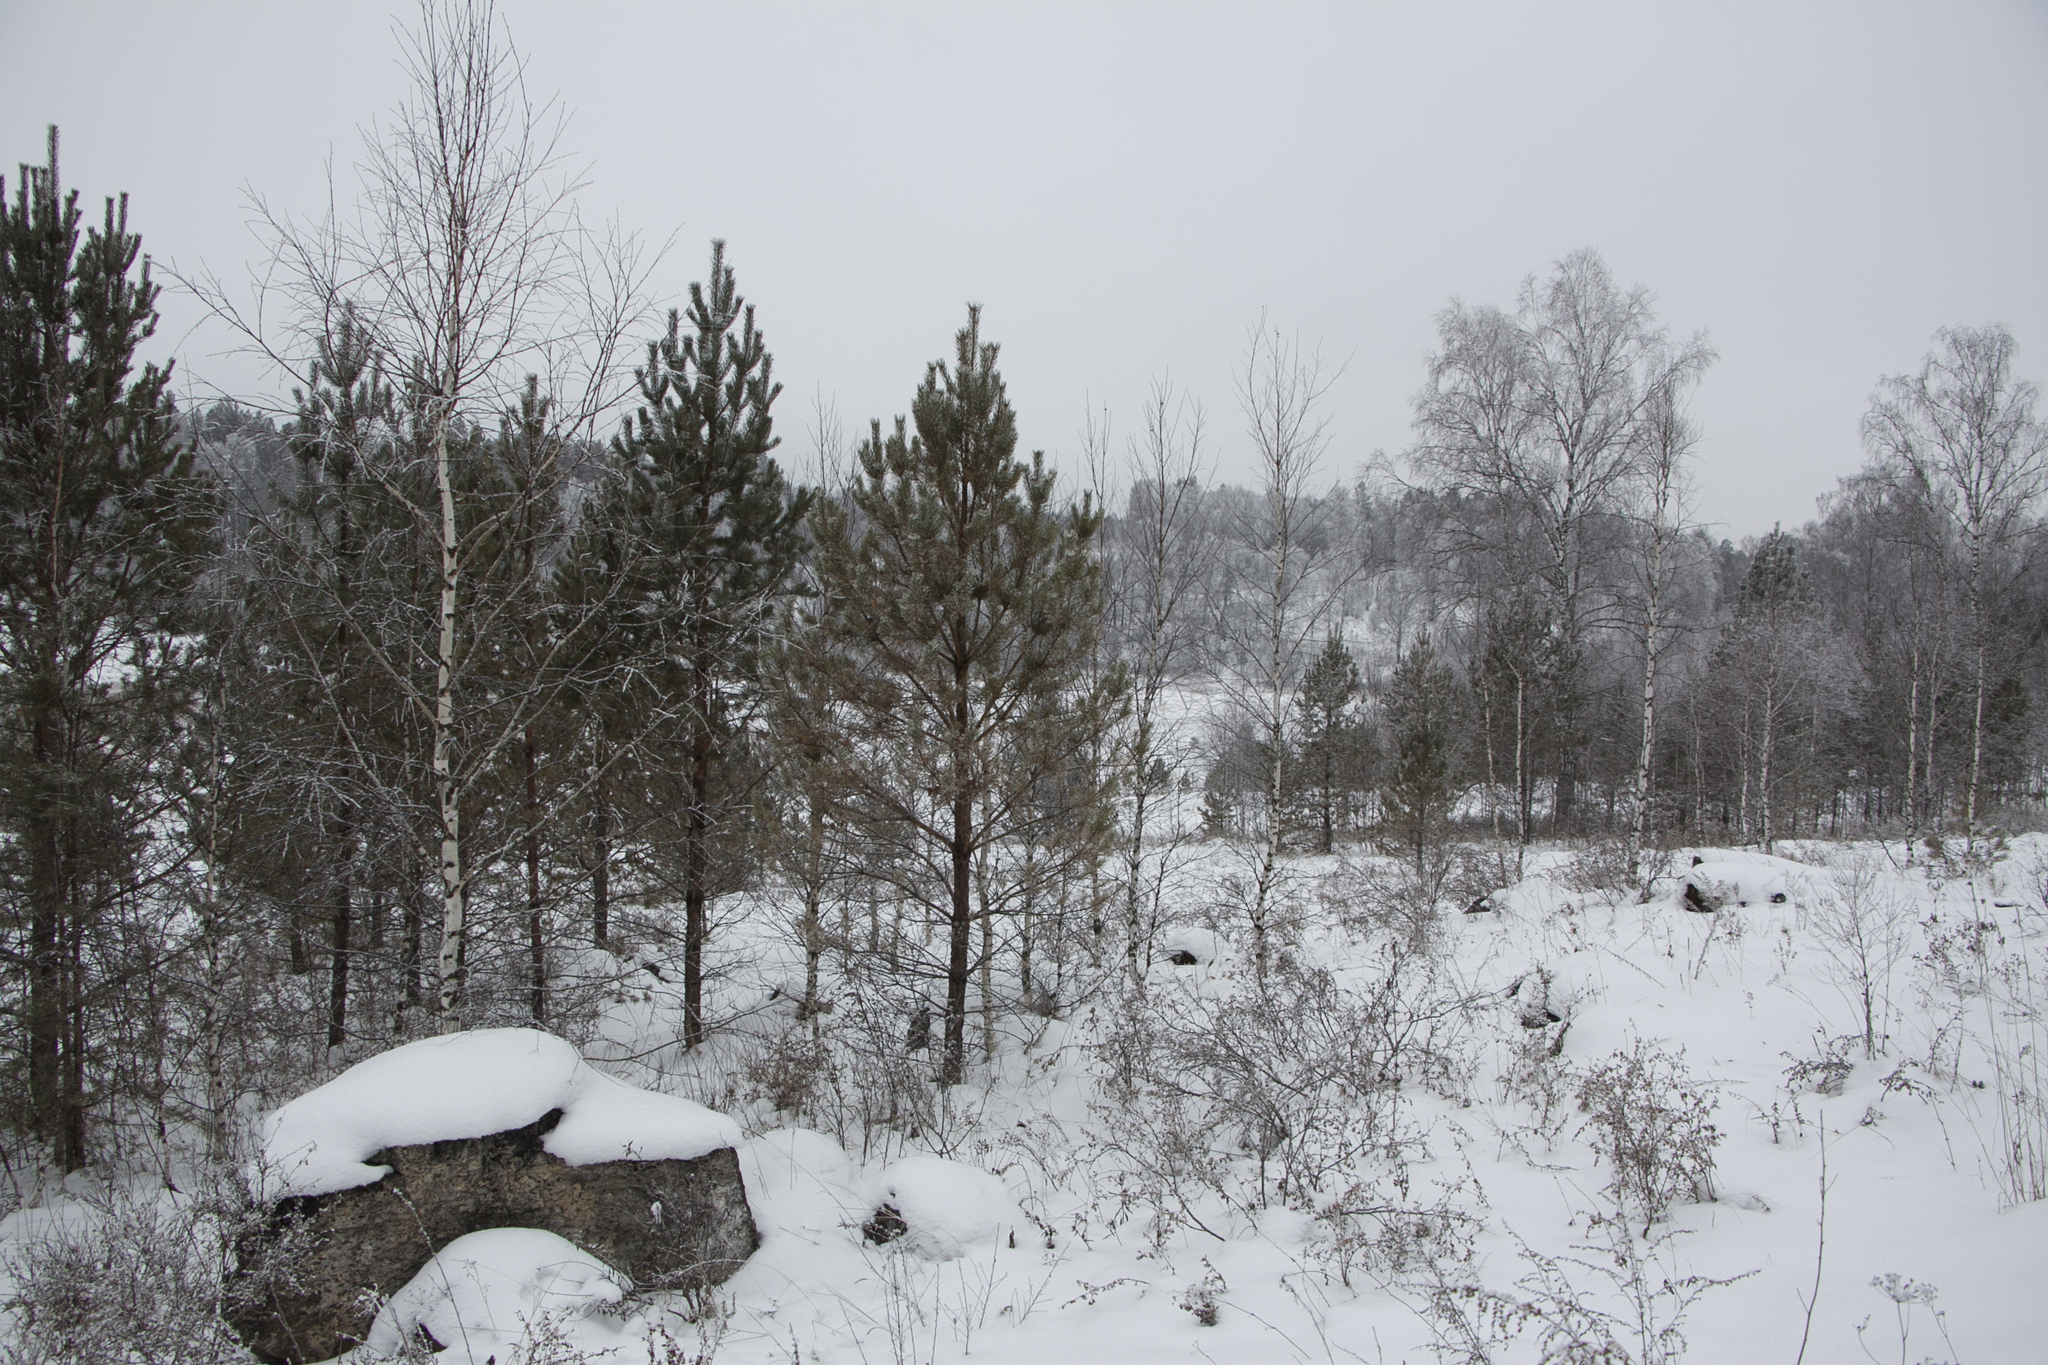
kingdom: Plantae
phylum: Tracheophyta
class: Pinopsida
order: Pinales
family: Pinaceae
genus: Pinus
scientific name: Pinus sylvestris
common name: Scots pine
